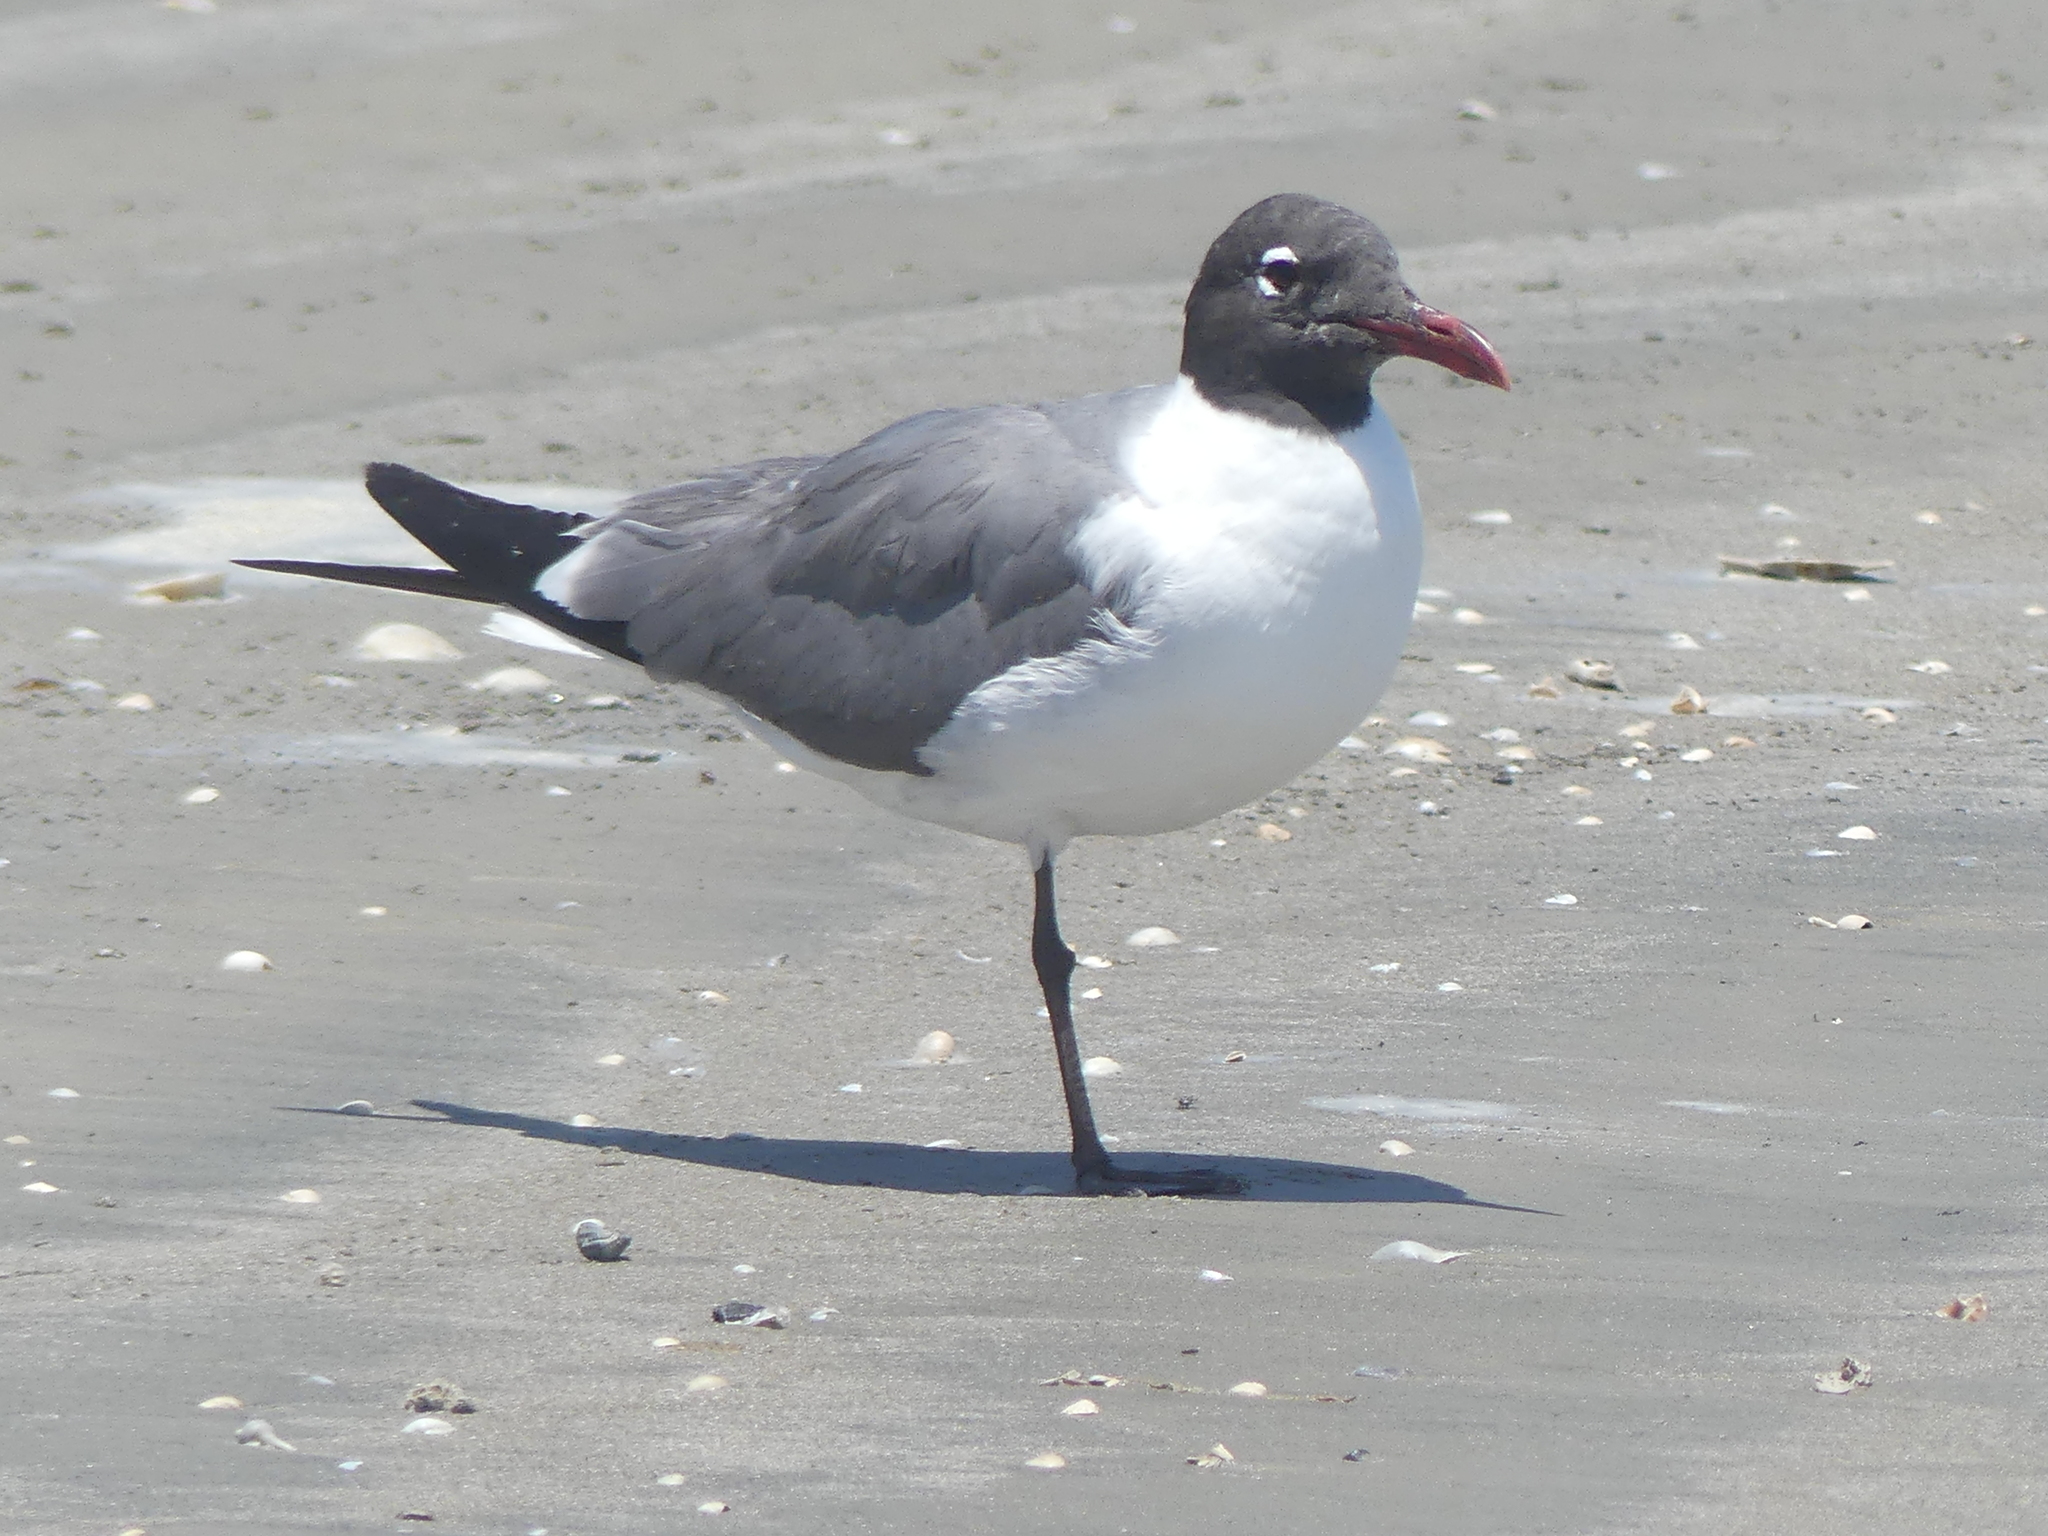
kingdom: Animalia
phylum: Chordata
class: Aves
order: Charadriiformes
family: Laridae
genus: Leucophaeus
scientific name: Leucophaeus atricilla
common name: Laughing gull
